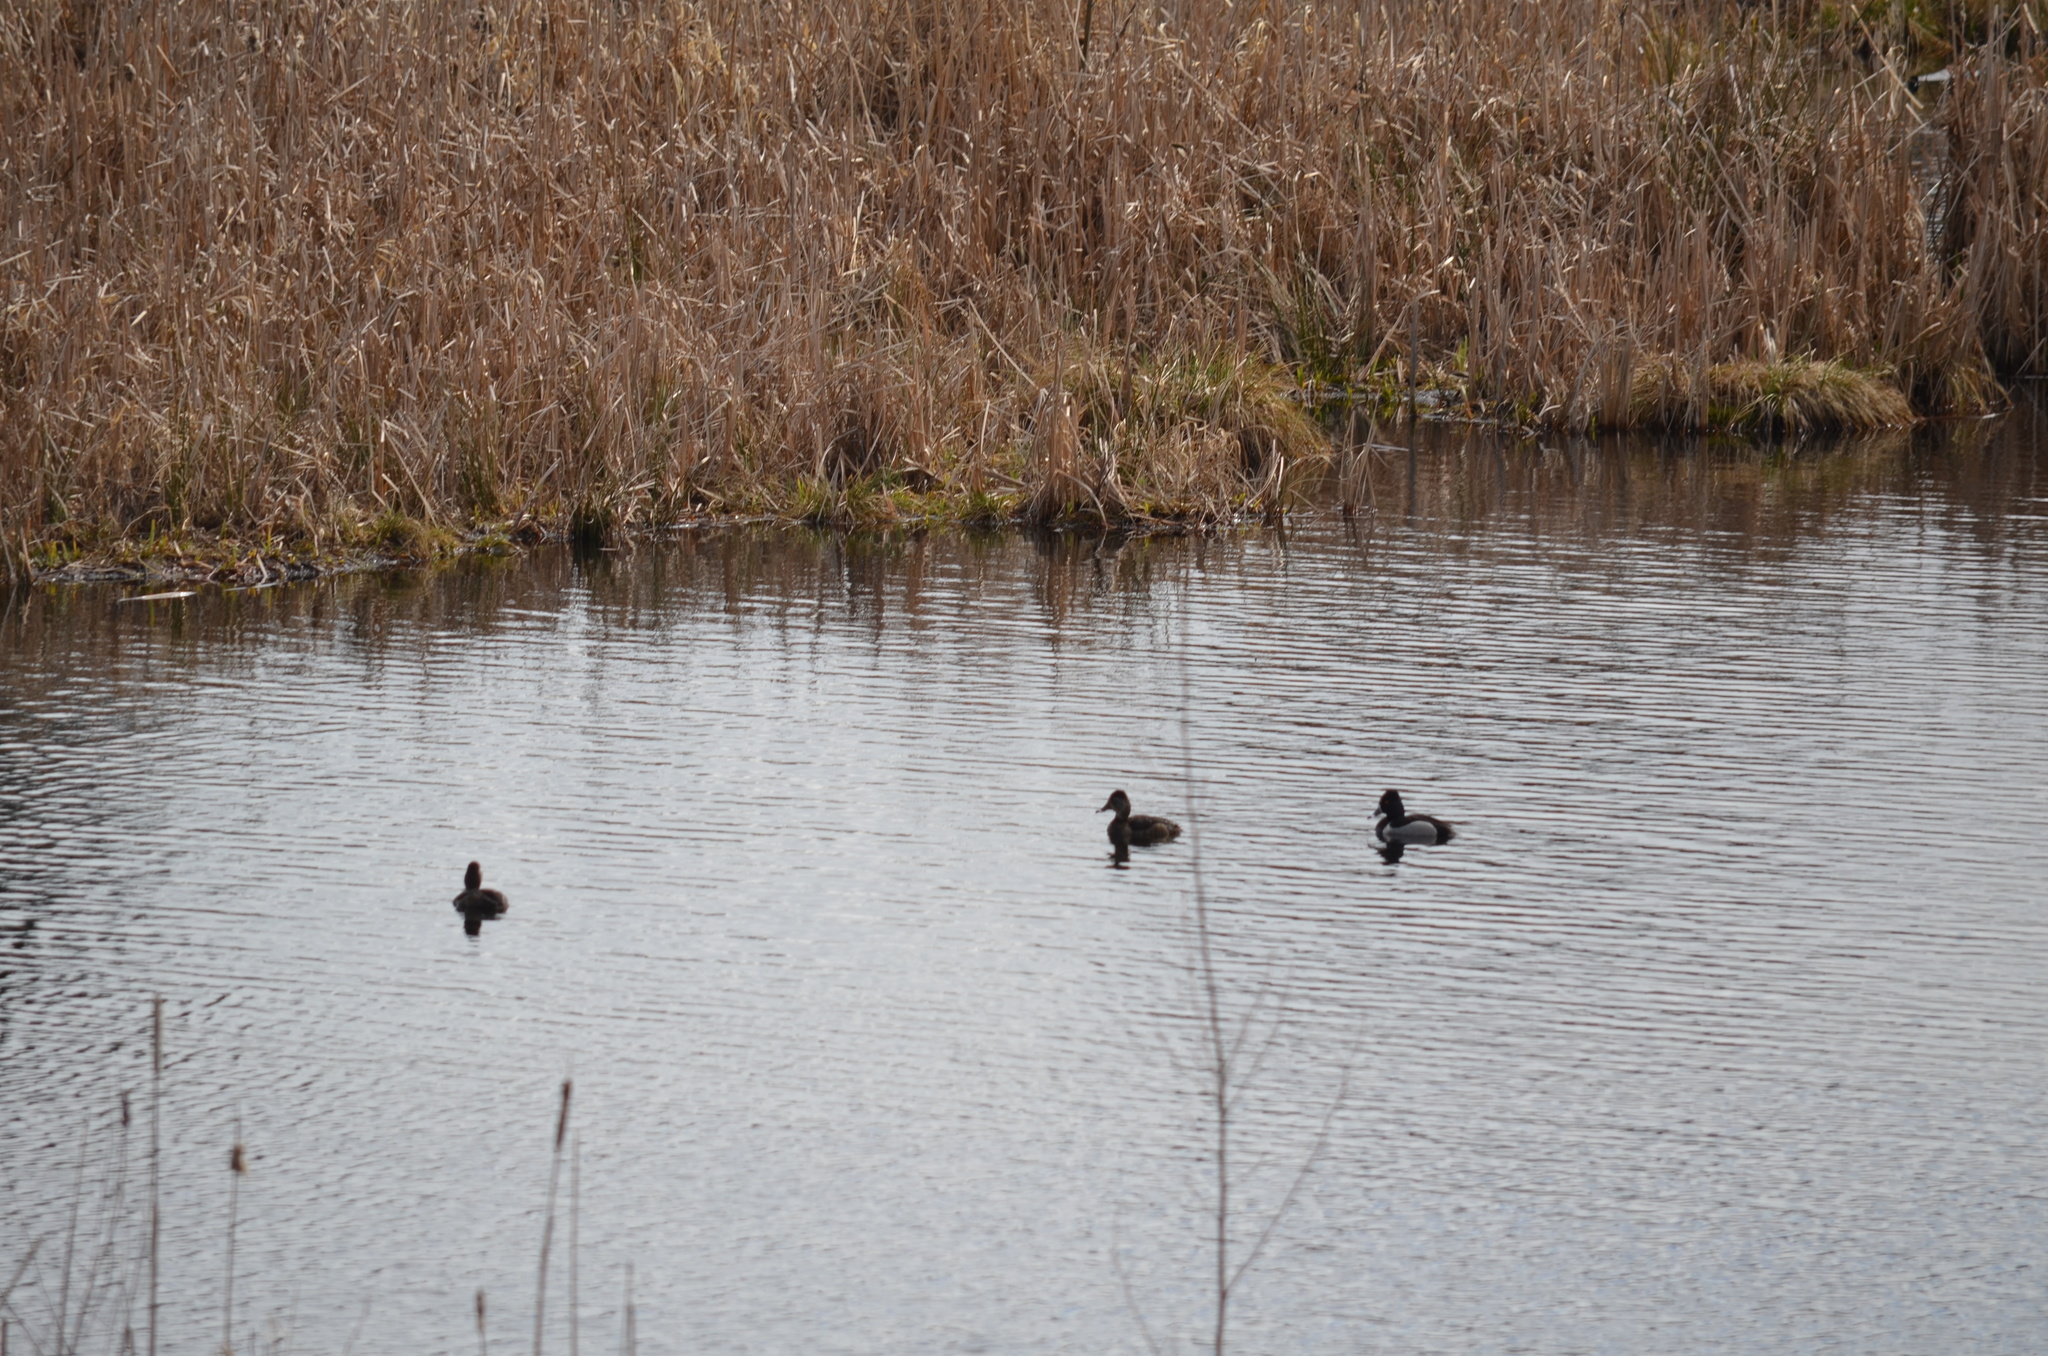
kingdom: Animalia
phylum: Chordata
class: Aves
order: Anseriformes
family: Anatidae
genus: Aythya
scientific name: Aythya collaris
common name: Ring-necked duck
